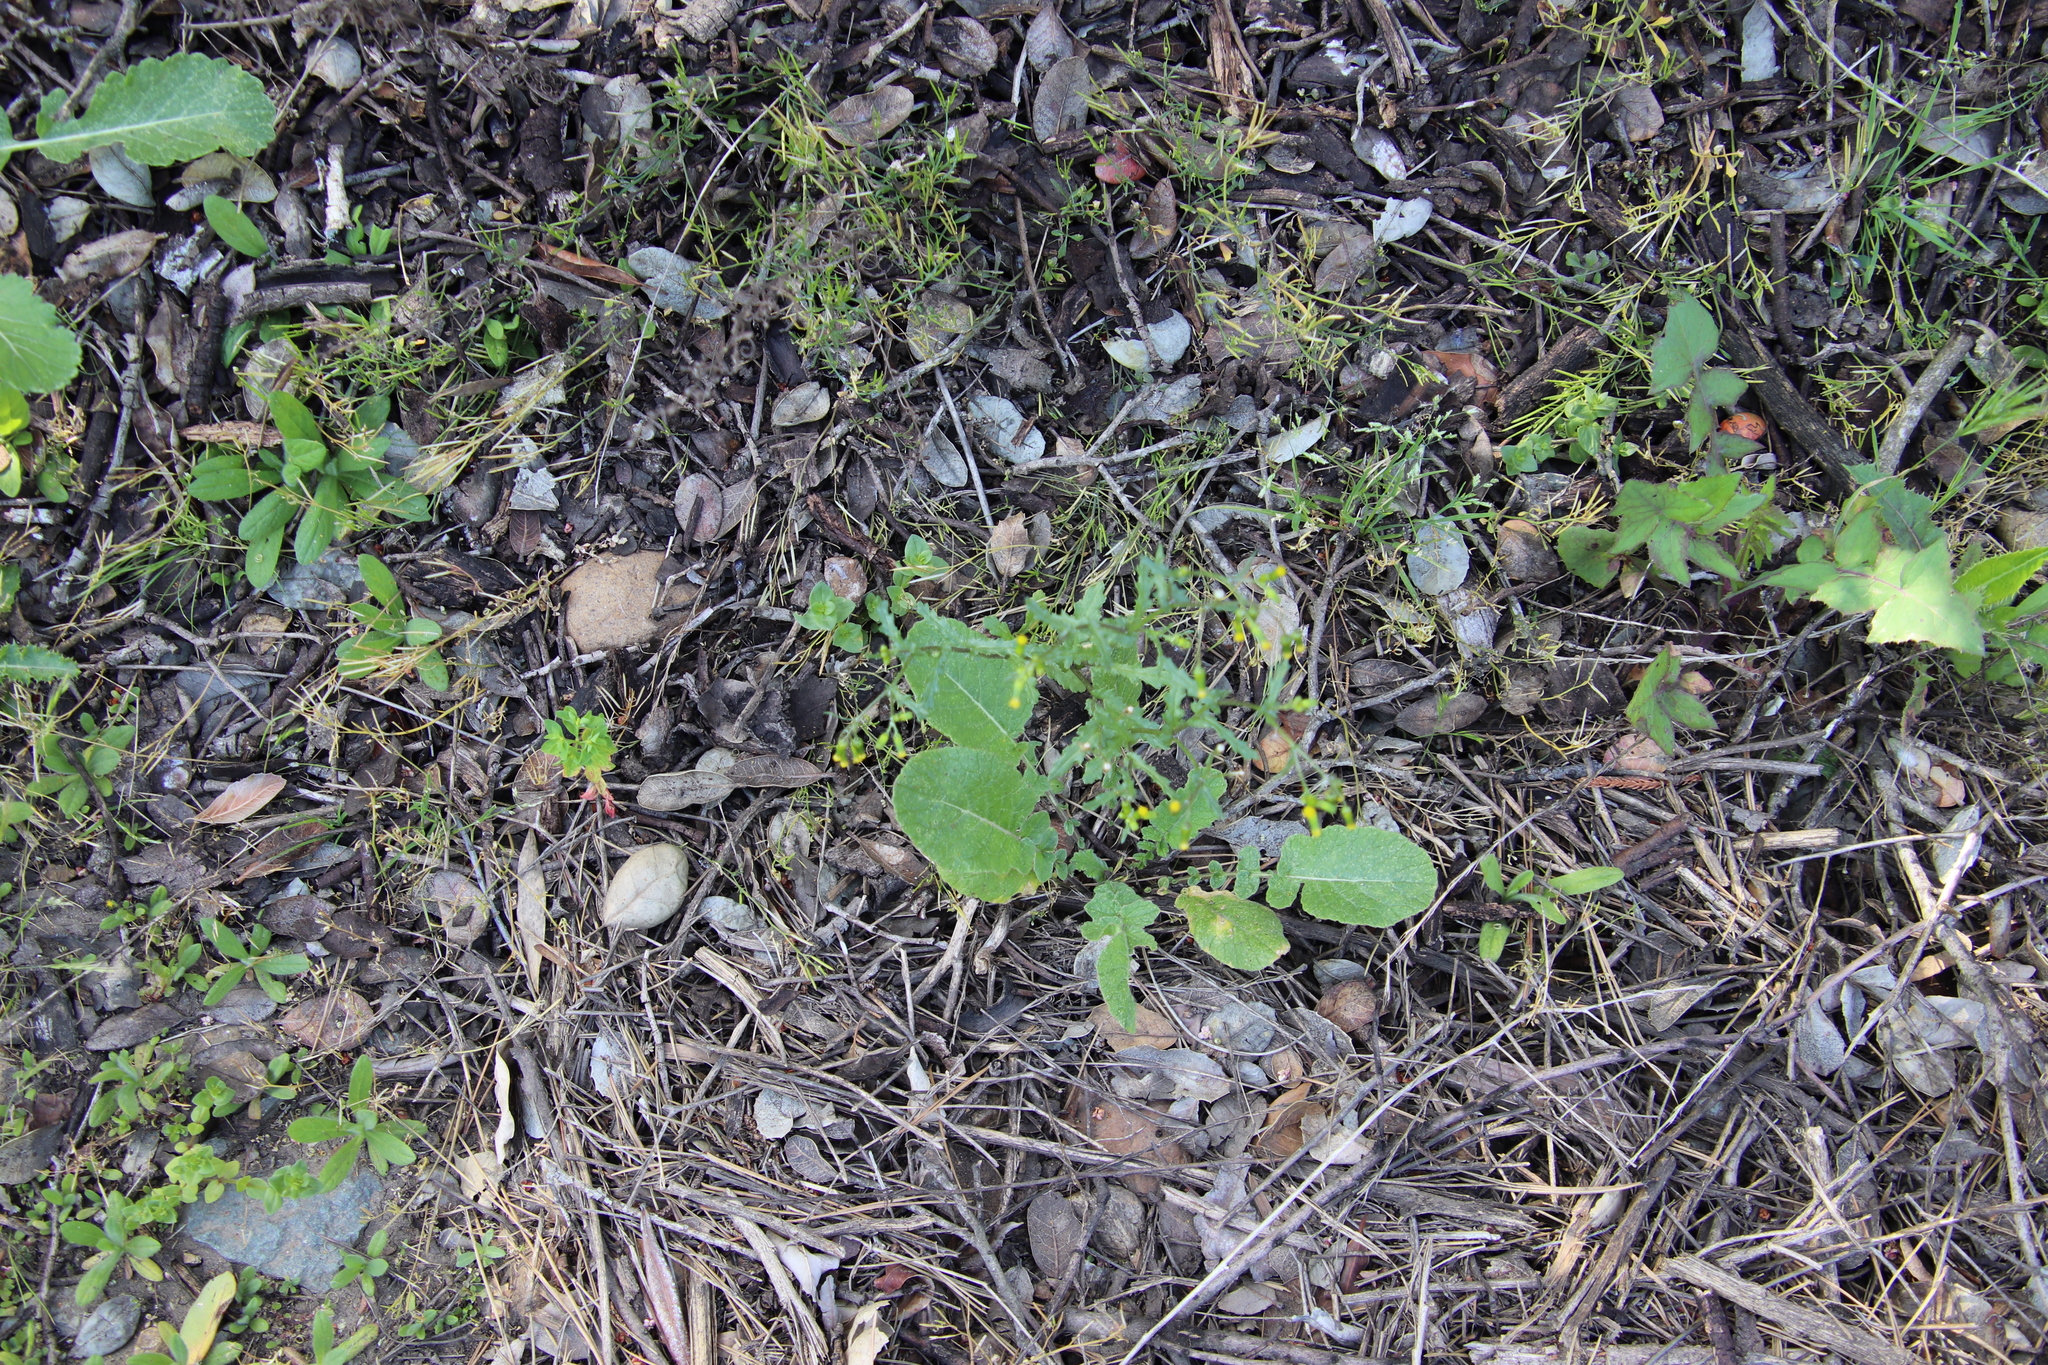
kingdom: Plantae
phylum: Tracheophyta
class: Magnoliopsida
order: Asterales
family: Asteraceae
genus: Senecio
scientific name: Senecio vulgaris
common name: Old-man-in-the-spring
